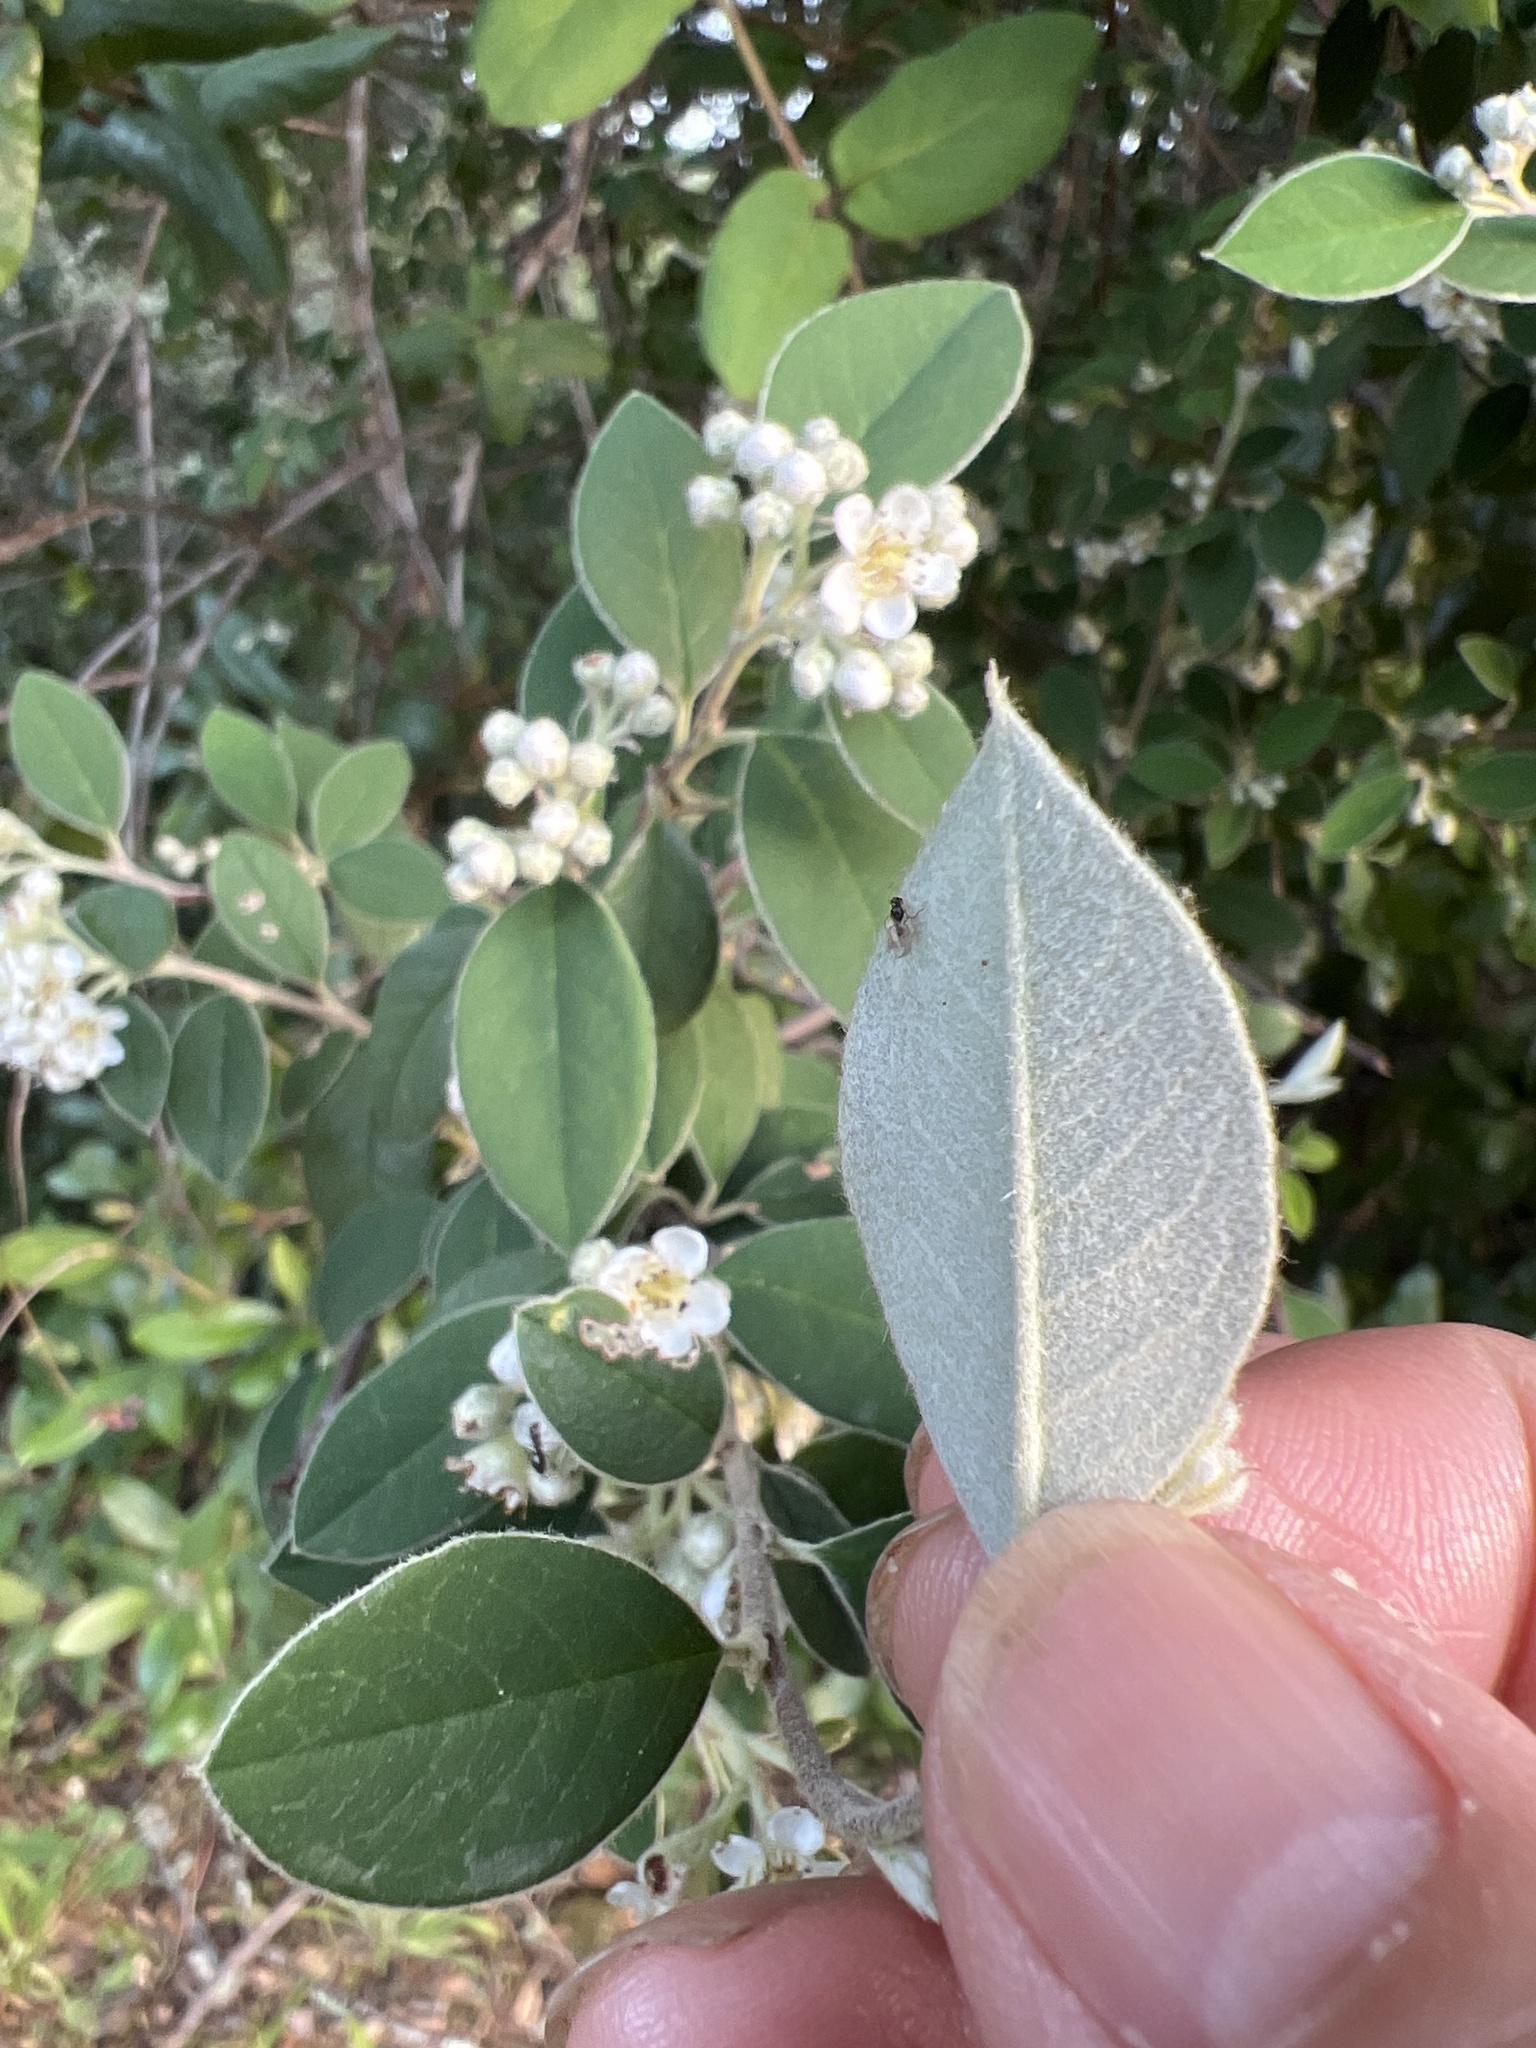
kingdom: Plantae
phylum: Tracheophyta
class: Magnoliopsida
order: Rosales
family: Rosaceae
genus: Cotoneaster
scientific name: Cotoneaster pannosus
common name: Silverleaf cotoneaster
